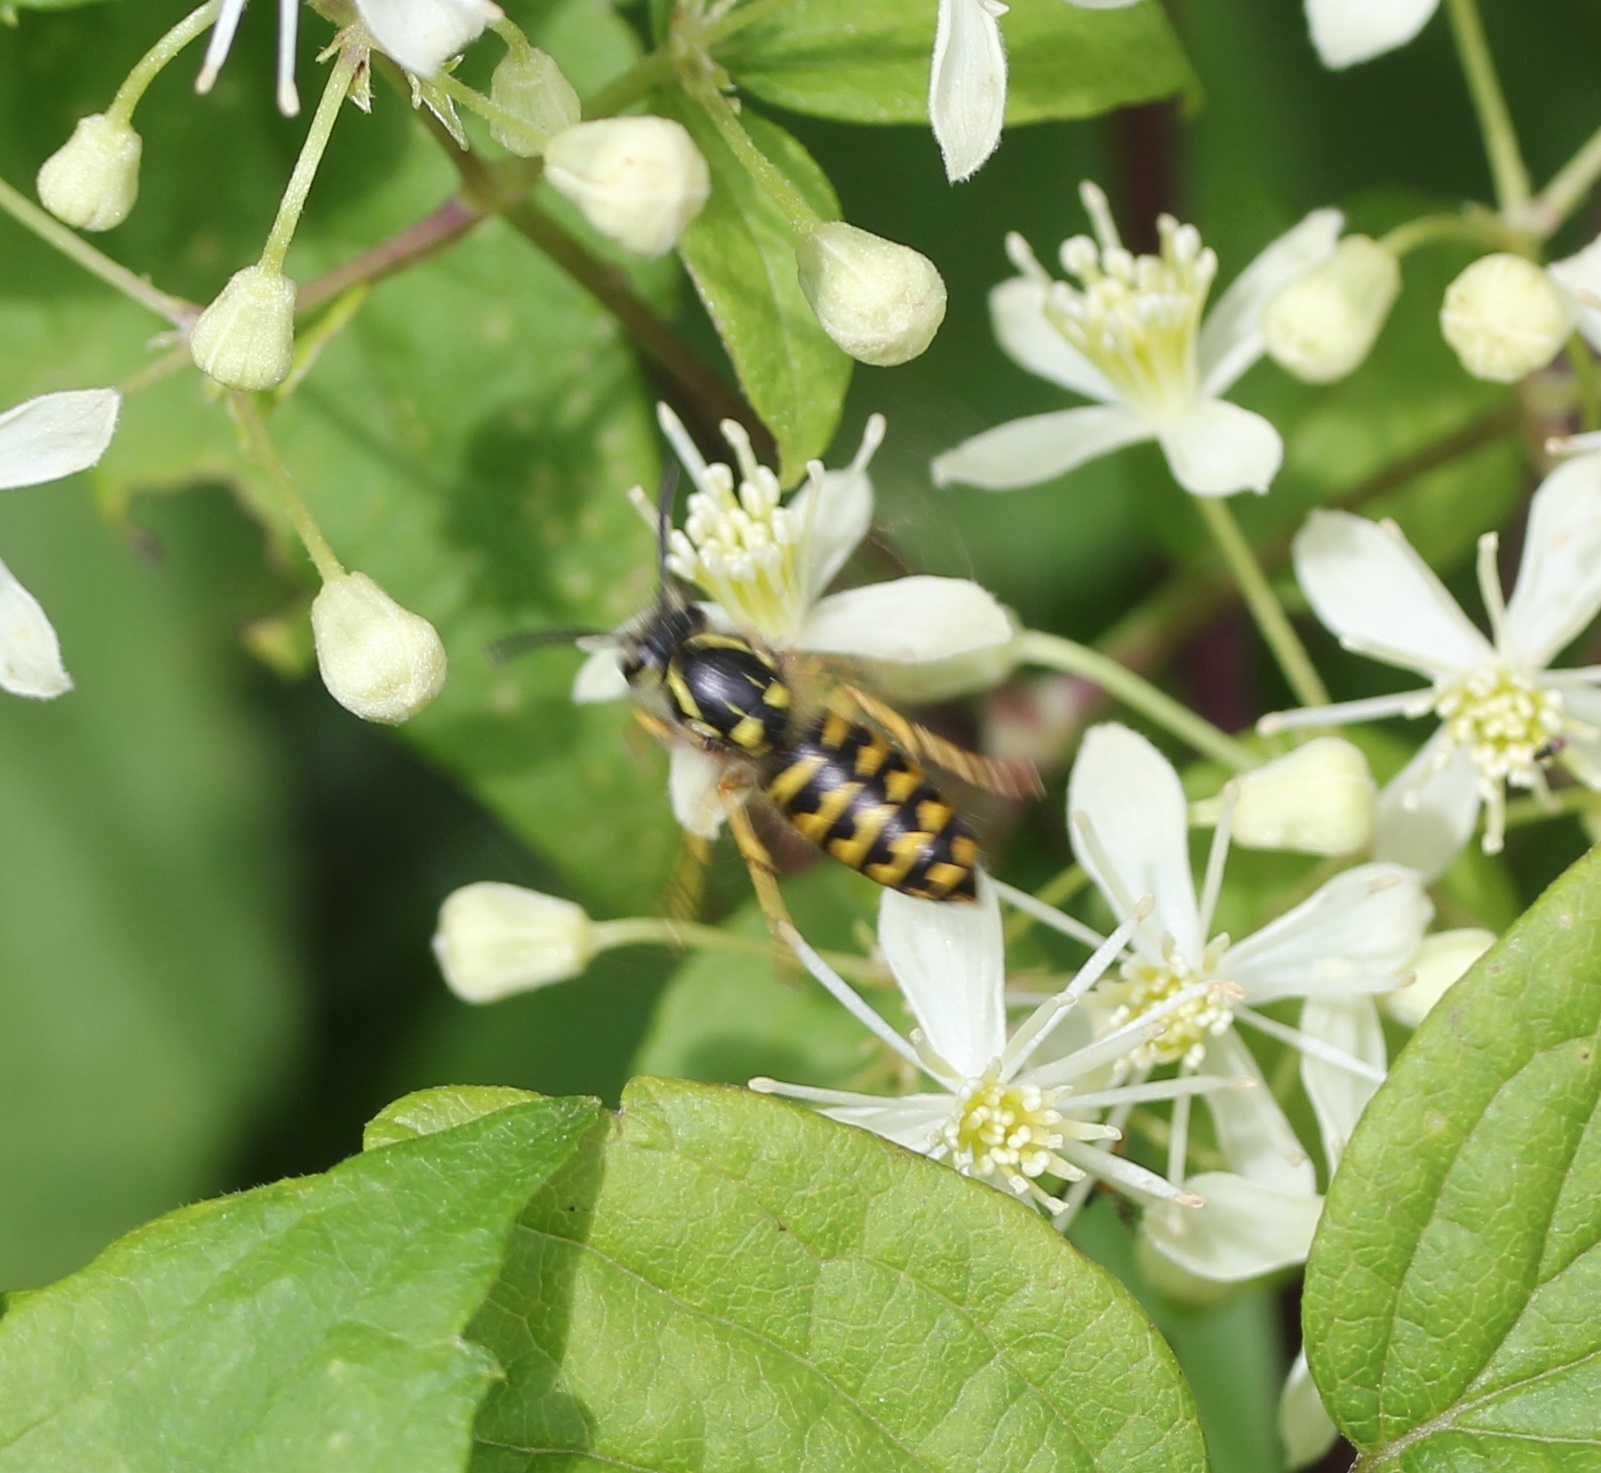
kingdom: Animalia
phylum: Arthropoda
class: Insecta
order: Hymenoptera
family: Vespidae
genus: Dolichovespula
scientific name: Dolichovespula arenaria
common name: Aerial yellowjacket
